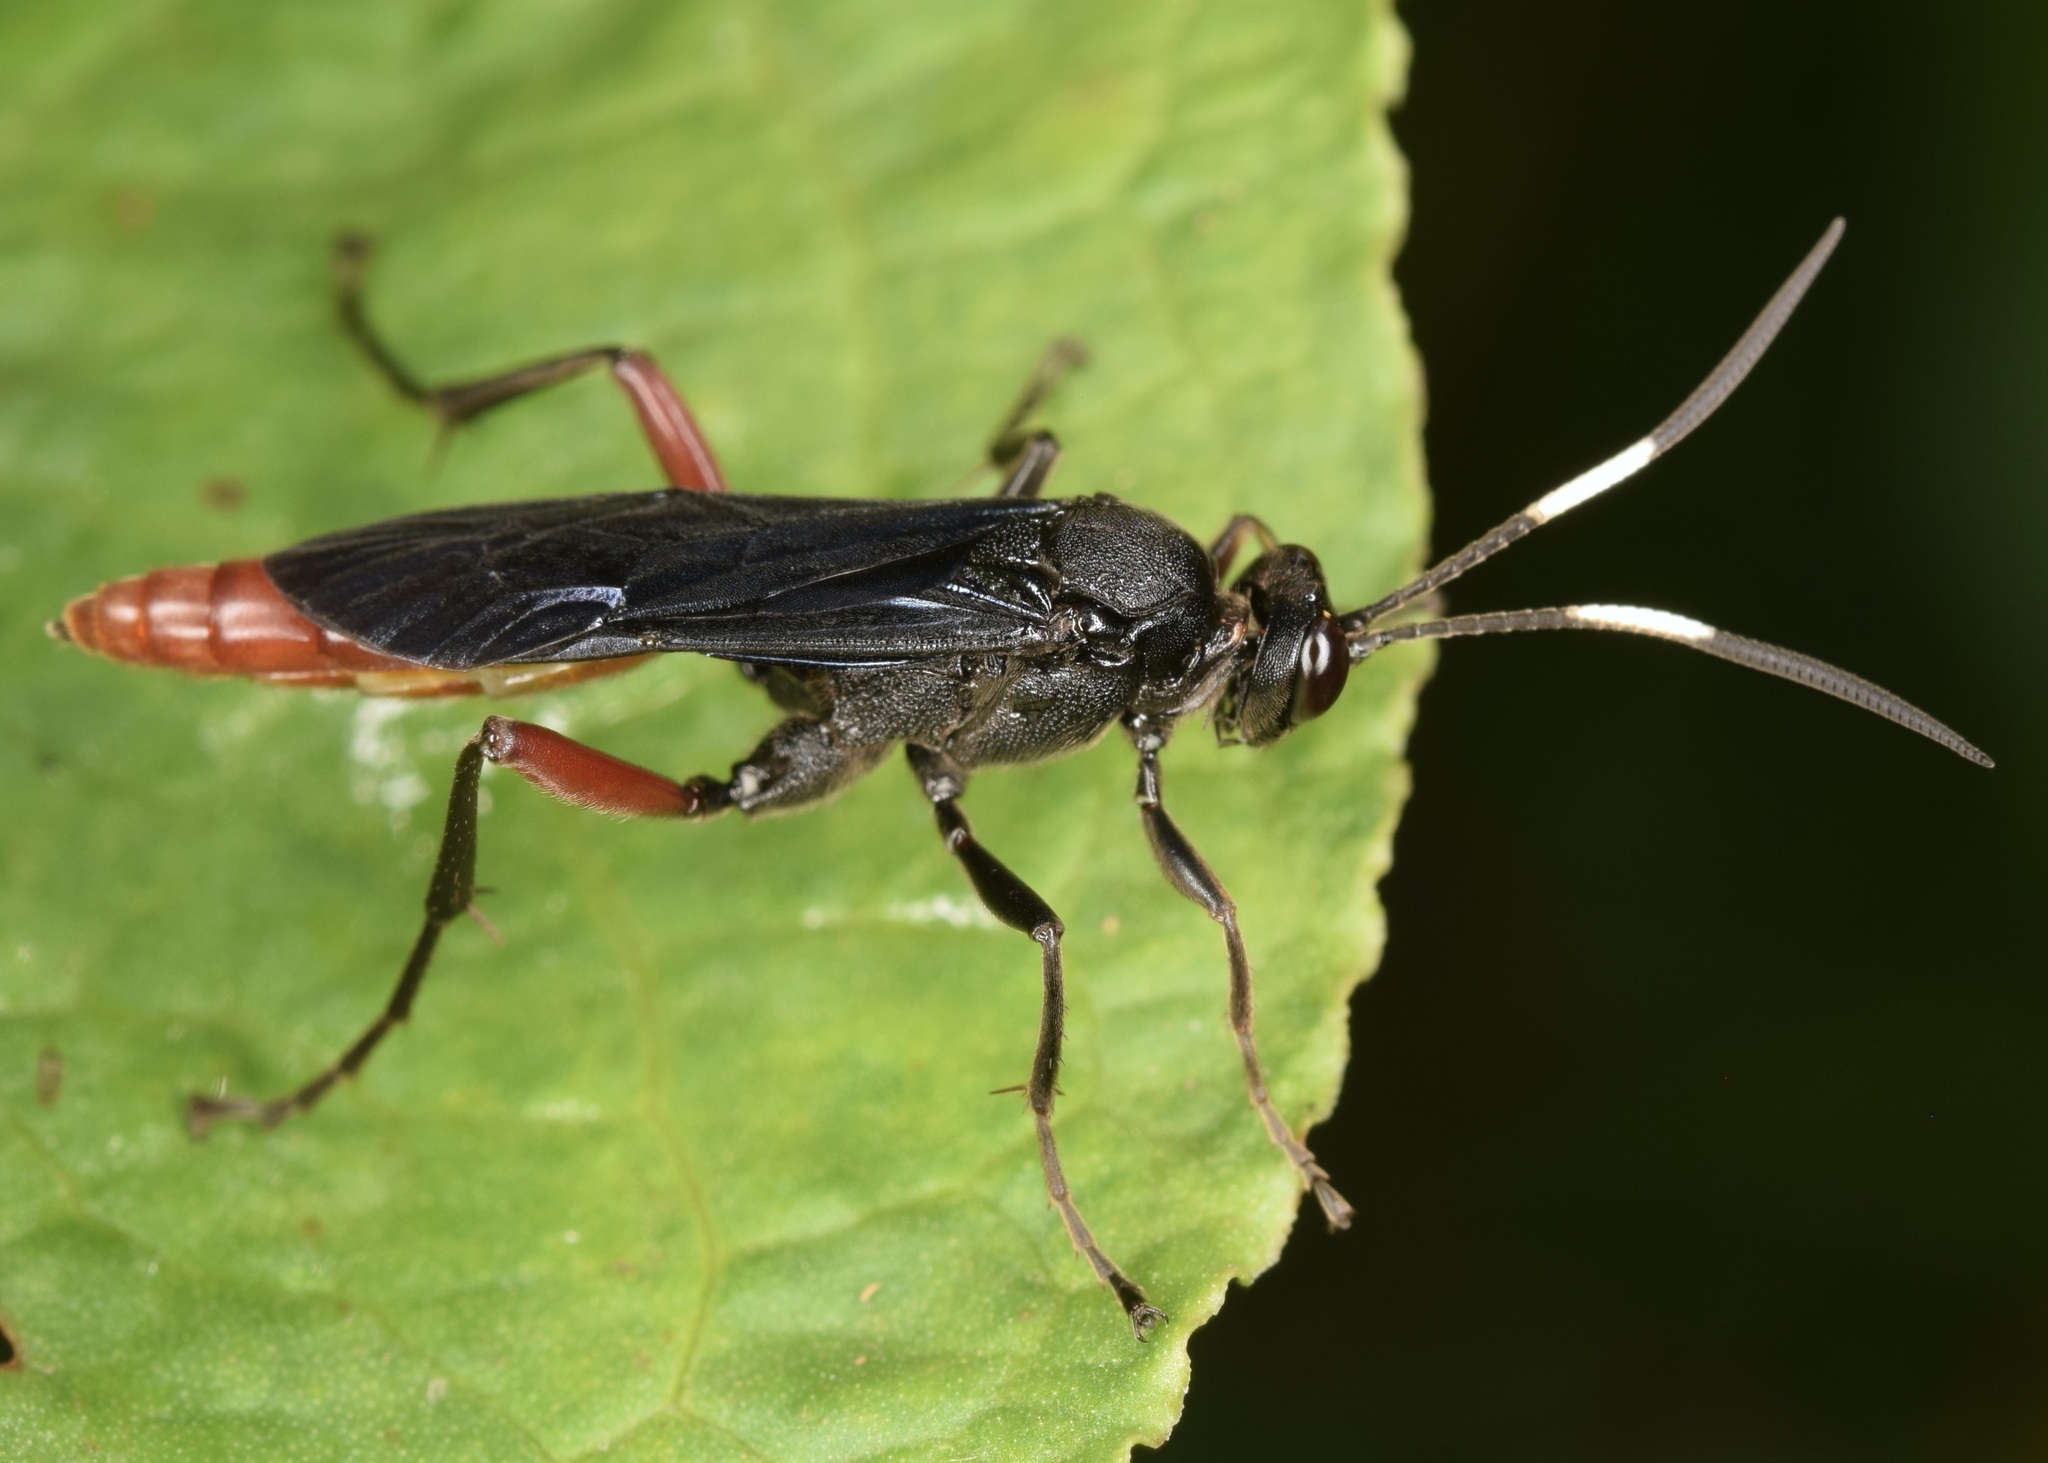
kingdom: Animalia
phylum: Arthropoda
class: Insecta
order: Hymenoptera
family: Ichneumonidae
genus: Limonethe
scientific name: Limonethe maurator
